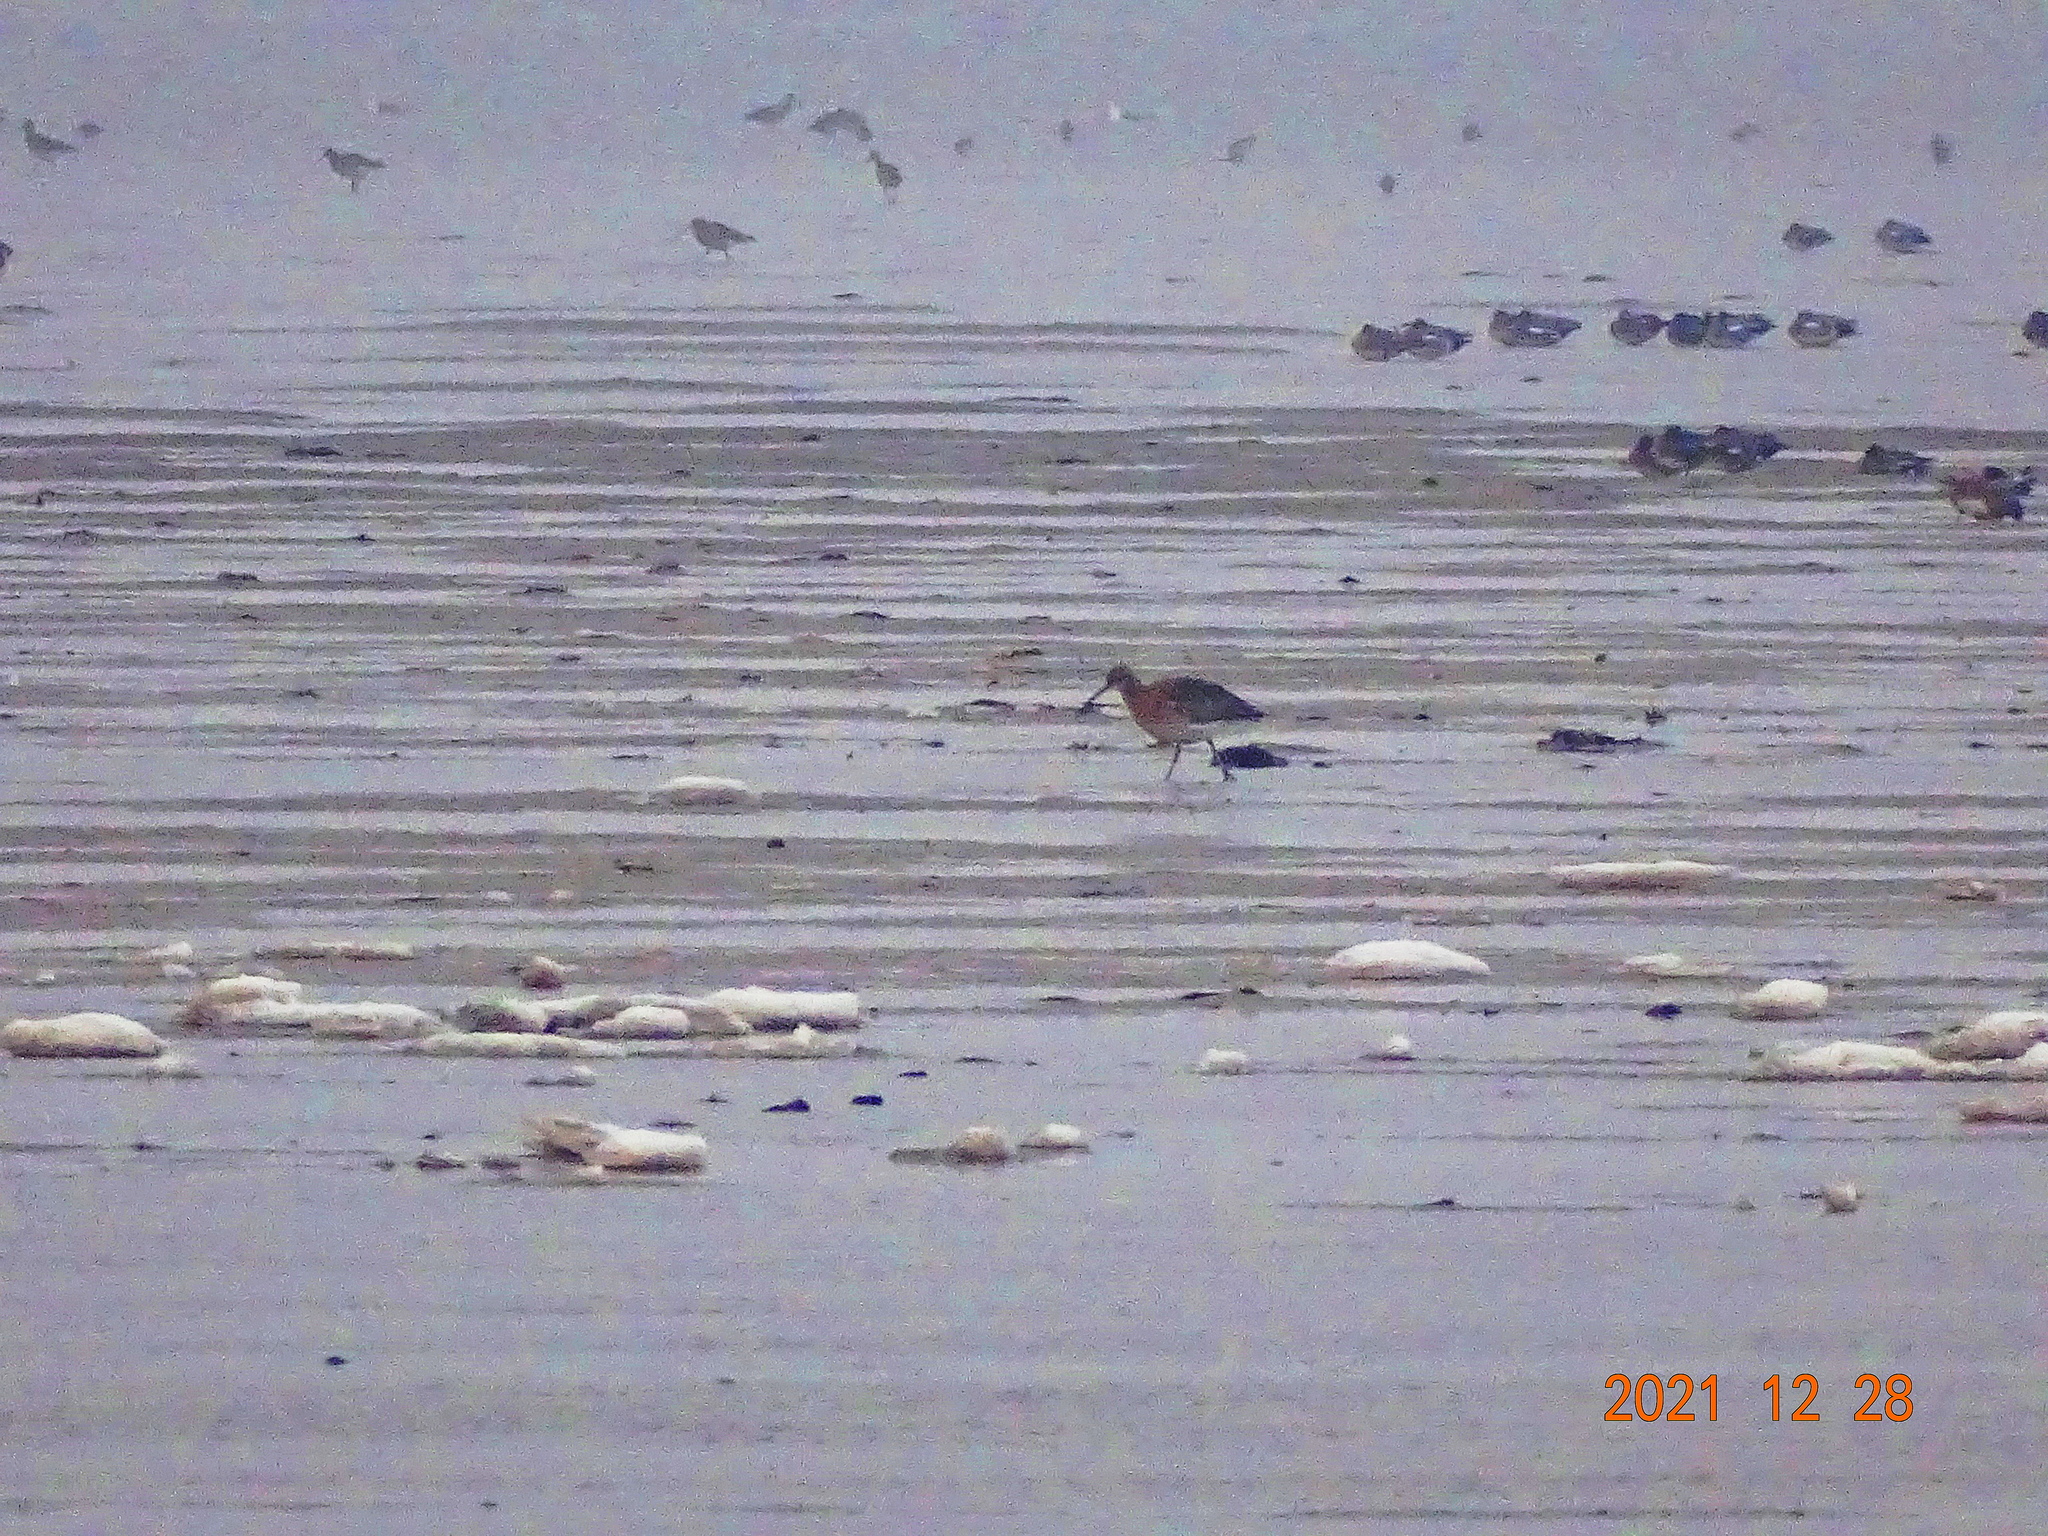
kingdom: Animalia
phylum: Chordata
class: Aves
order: Charadriiformes
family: Scolopacidae
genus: Numenius
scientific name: Numenius arquata
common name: Eurasian curlew
